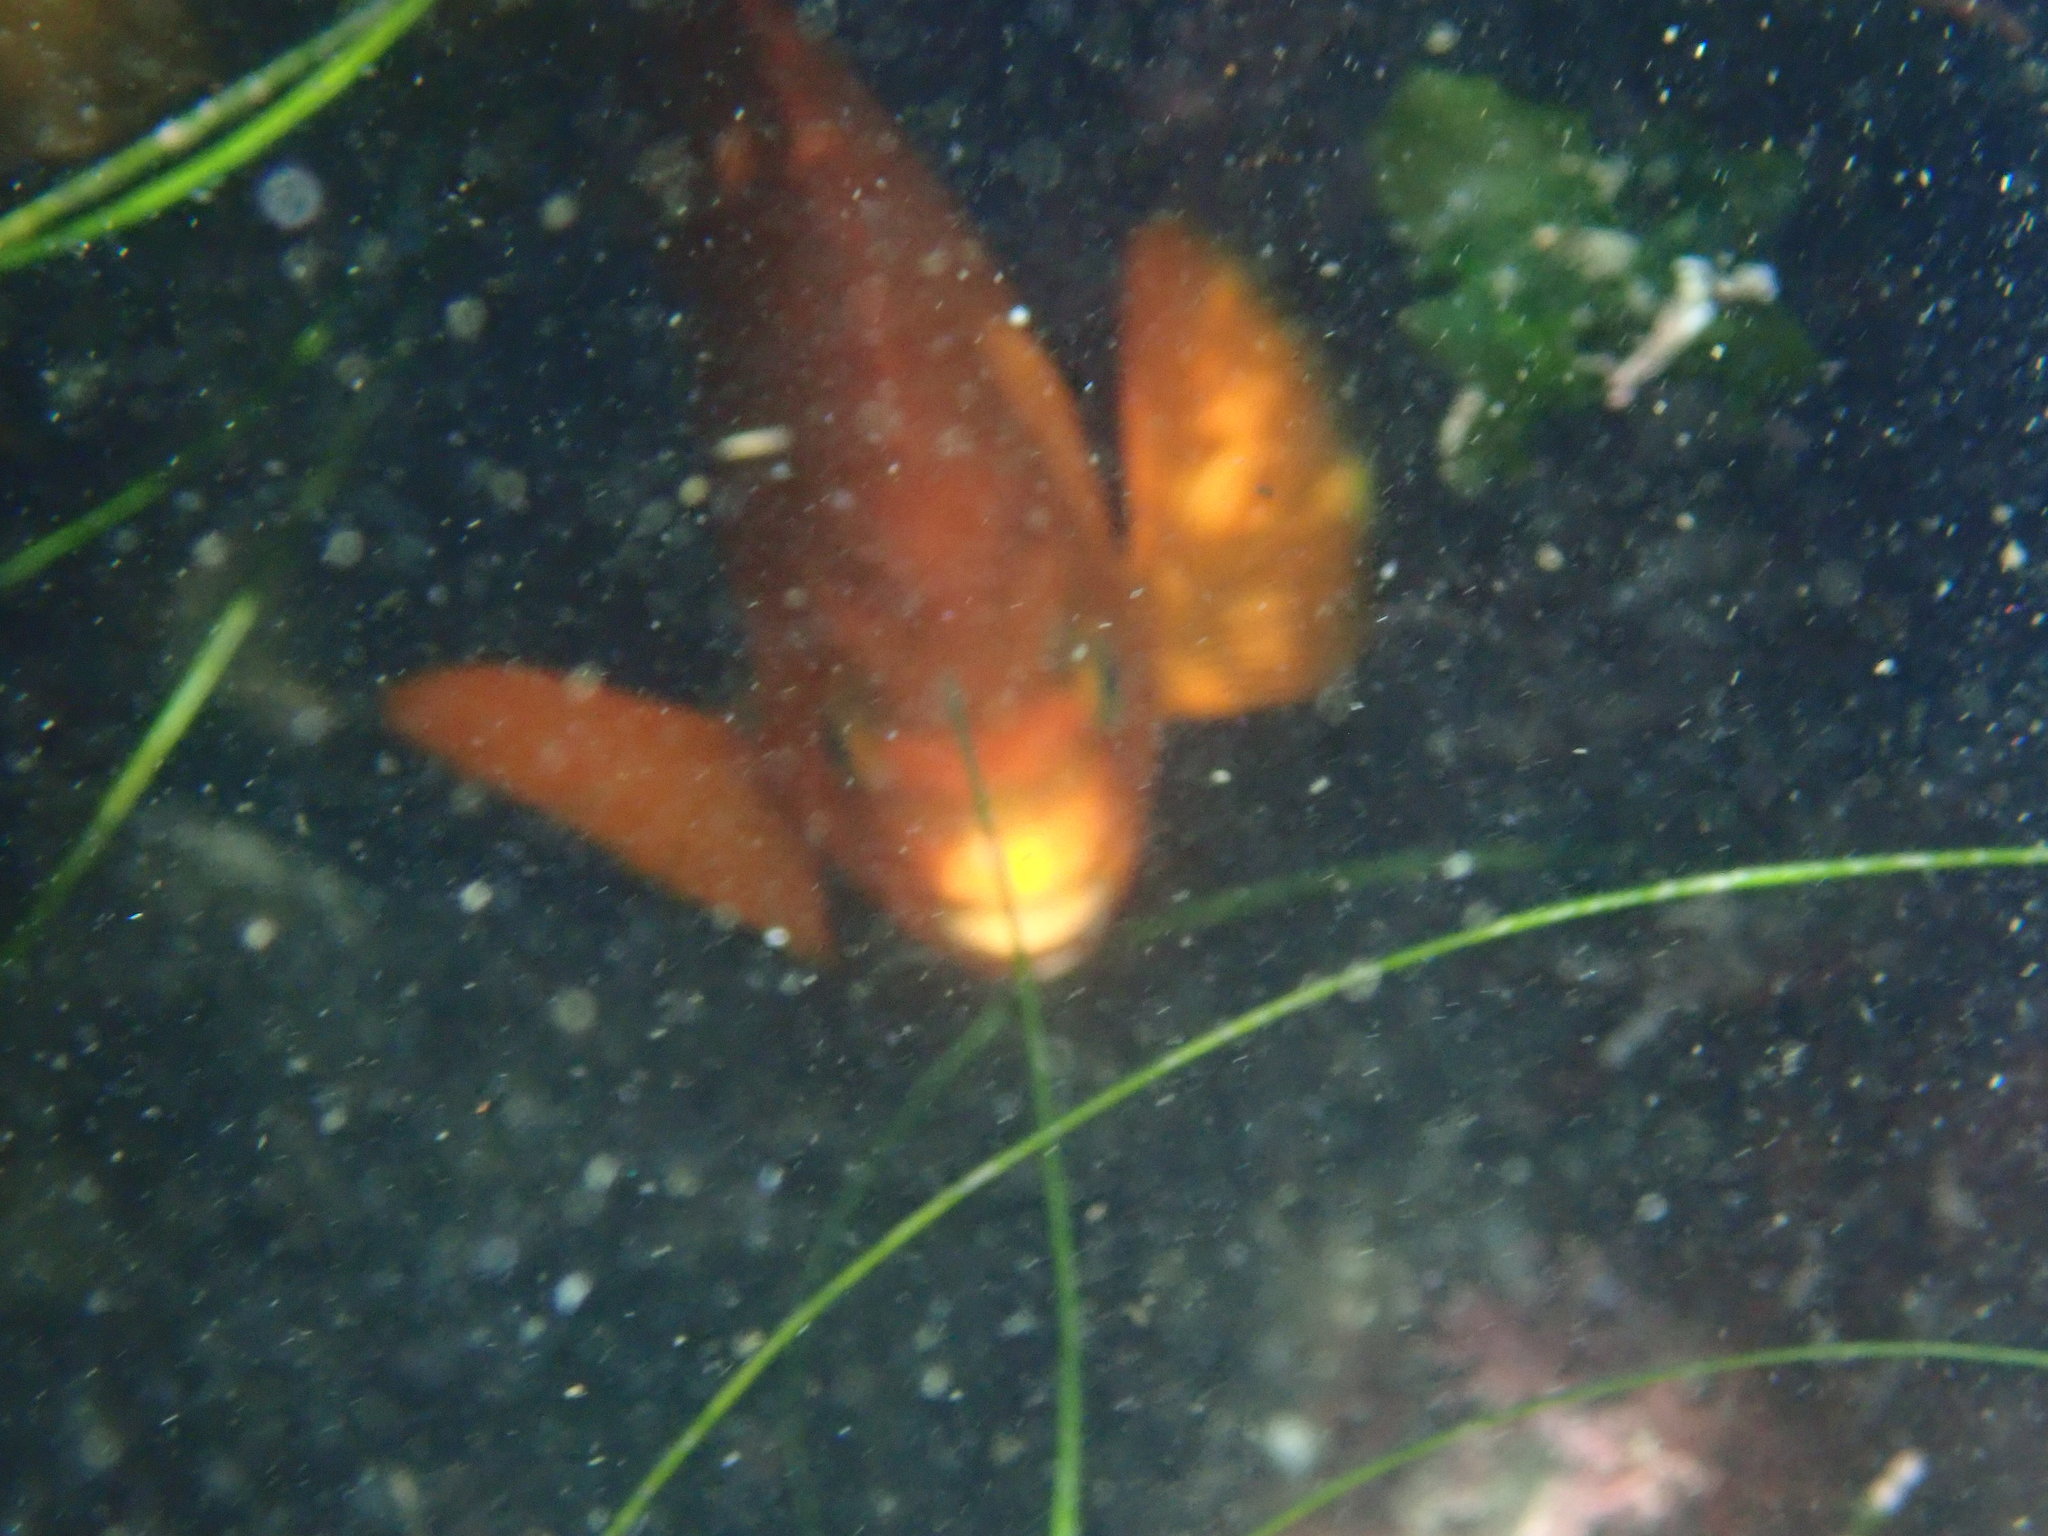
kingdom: Animalia
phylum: Chordata
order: Perciformes
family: Pomacentridae
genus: Hypsypops
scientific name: Hypsypops rubicundus
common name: Garibaldi
